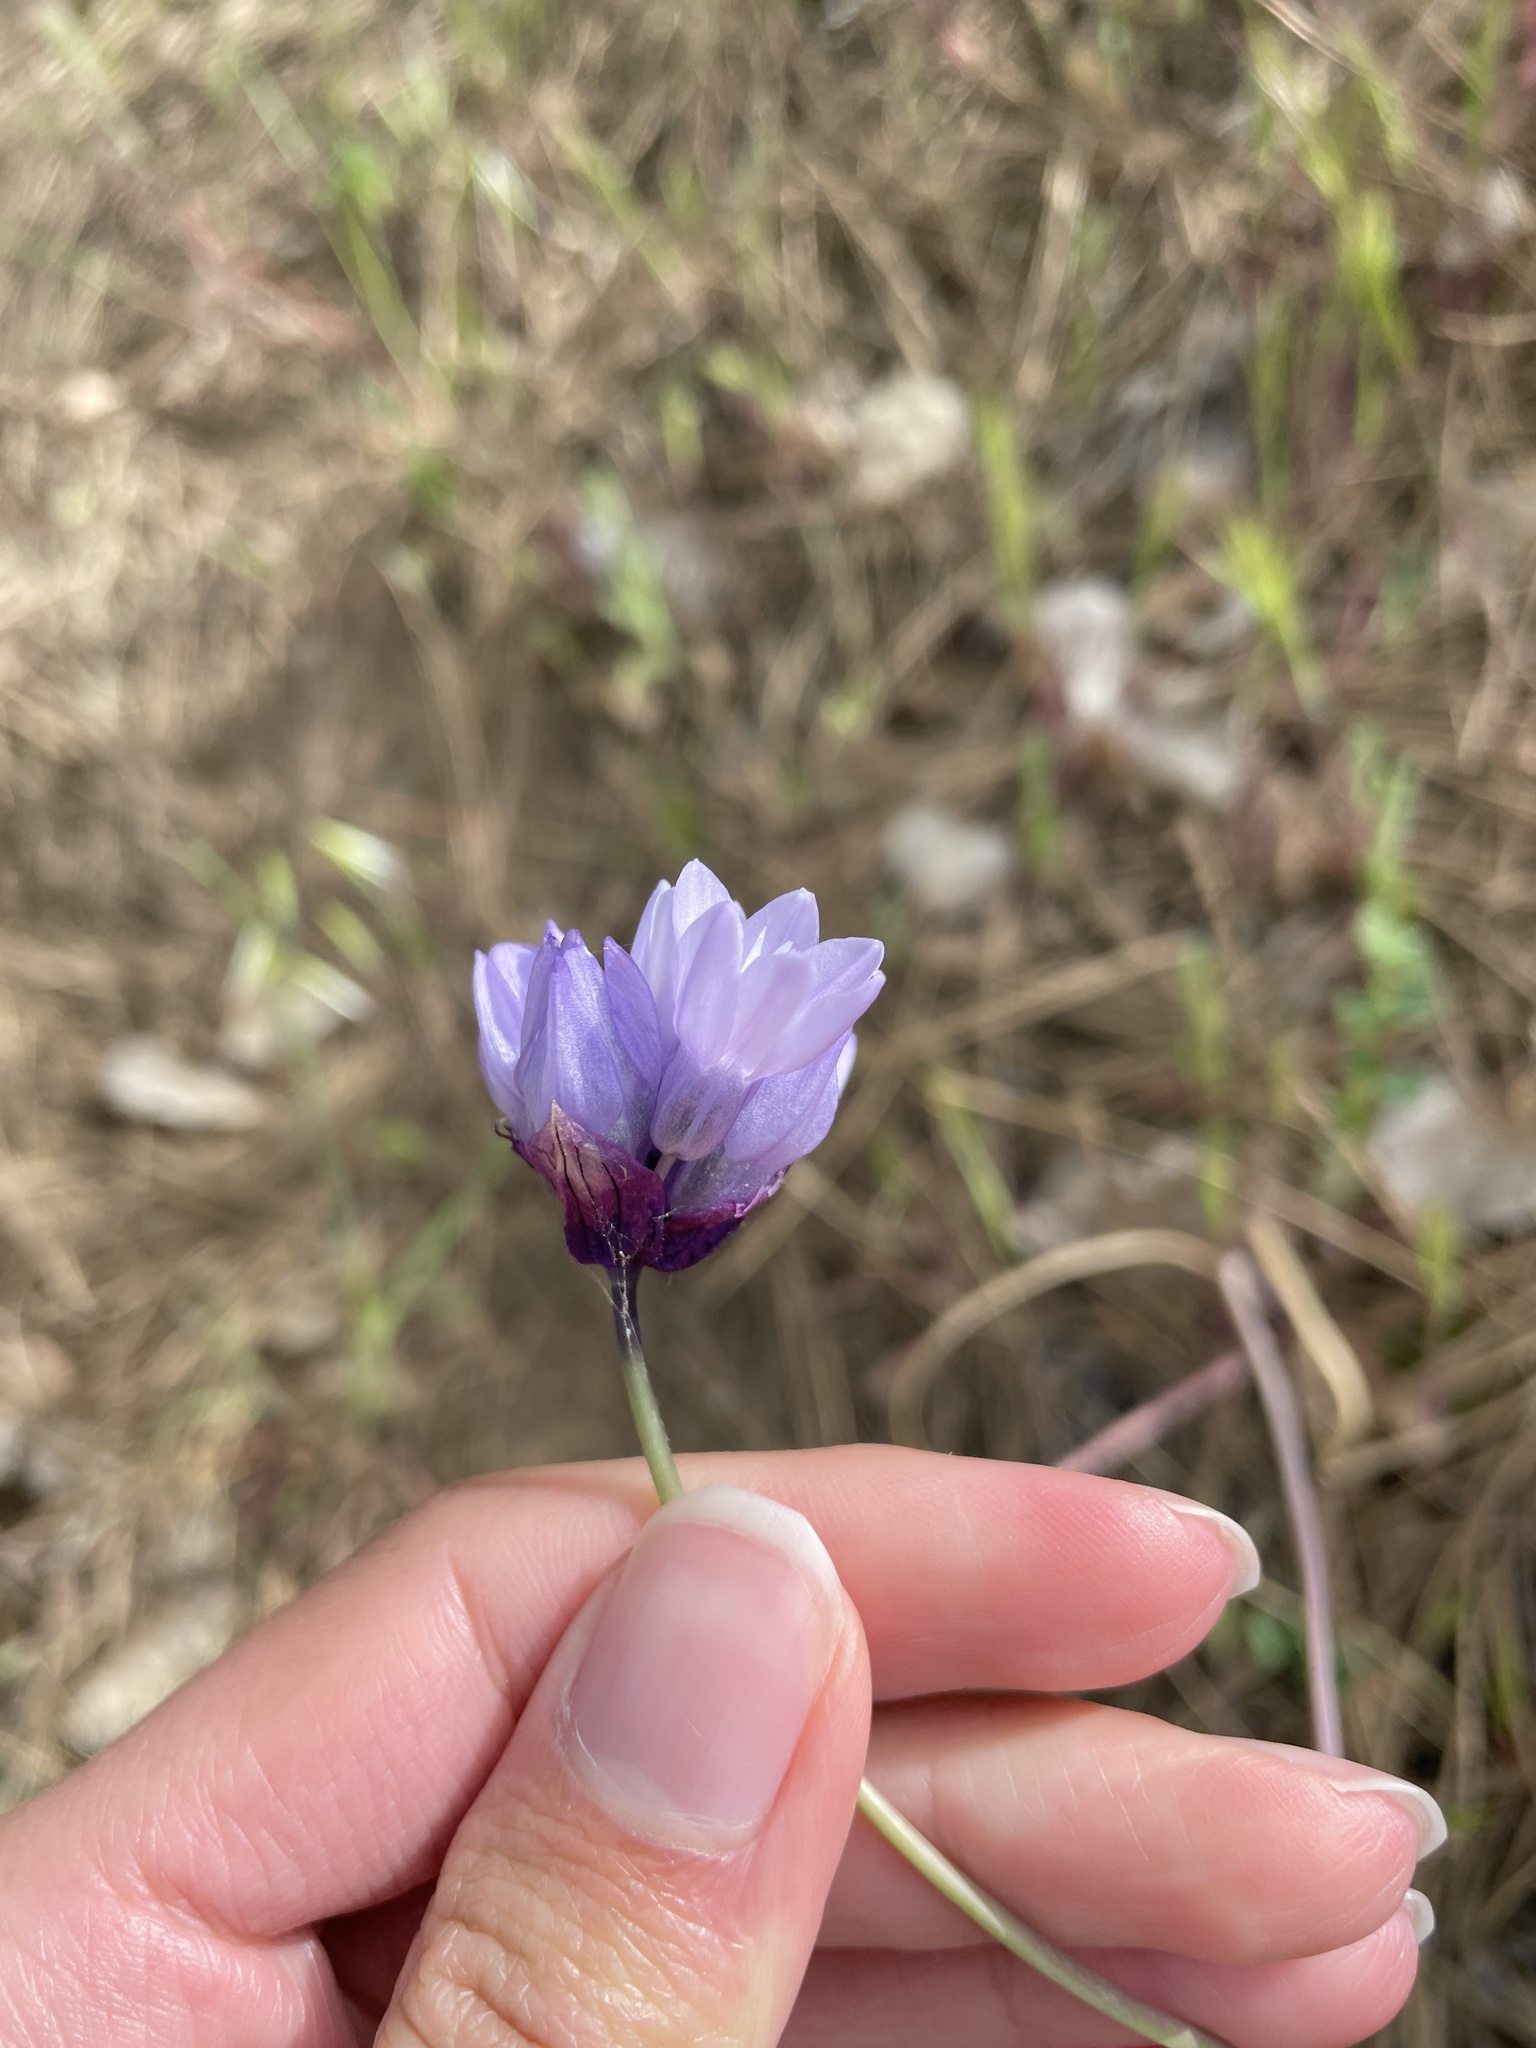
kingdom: Plantae
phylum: Tracheophyta
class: Liliopsida
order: Asparagales
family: Asparagaceae
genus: Dipterostemon
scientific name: Dipterostemon capitatus
